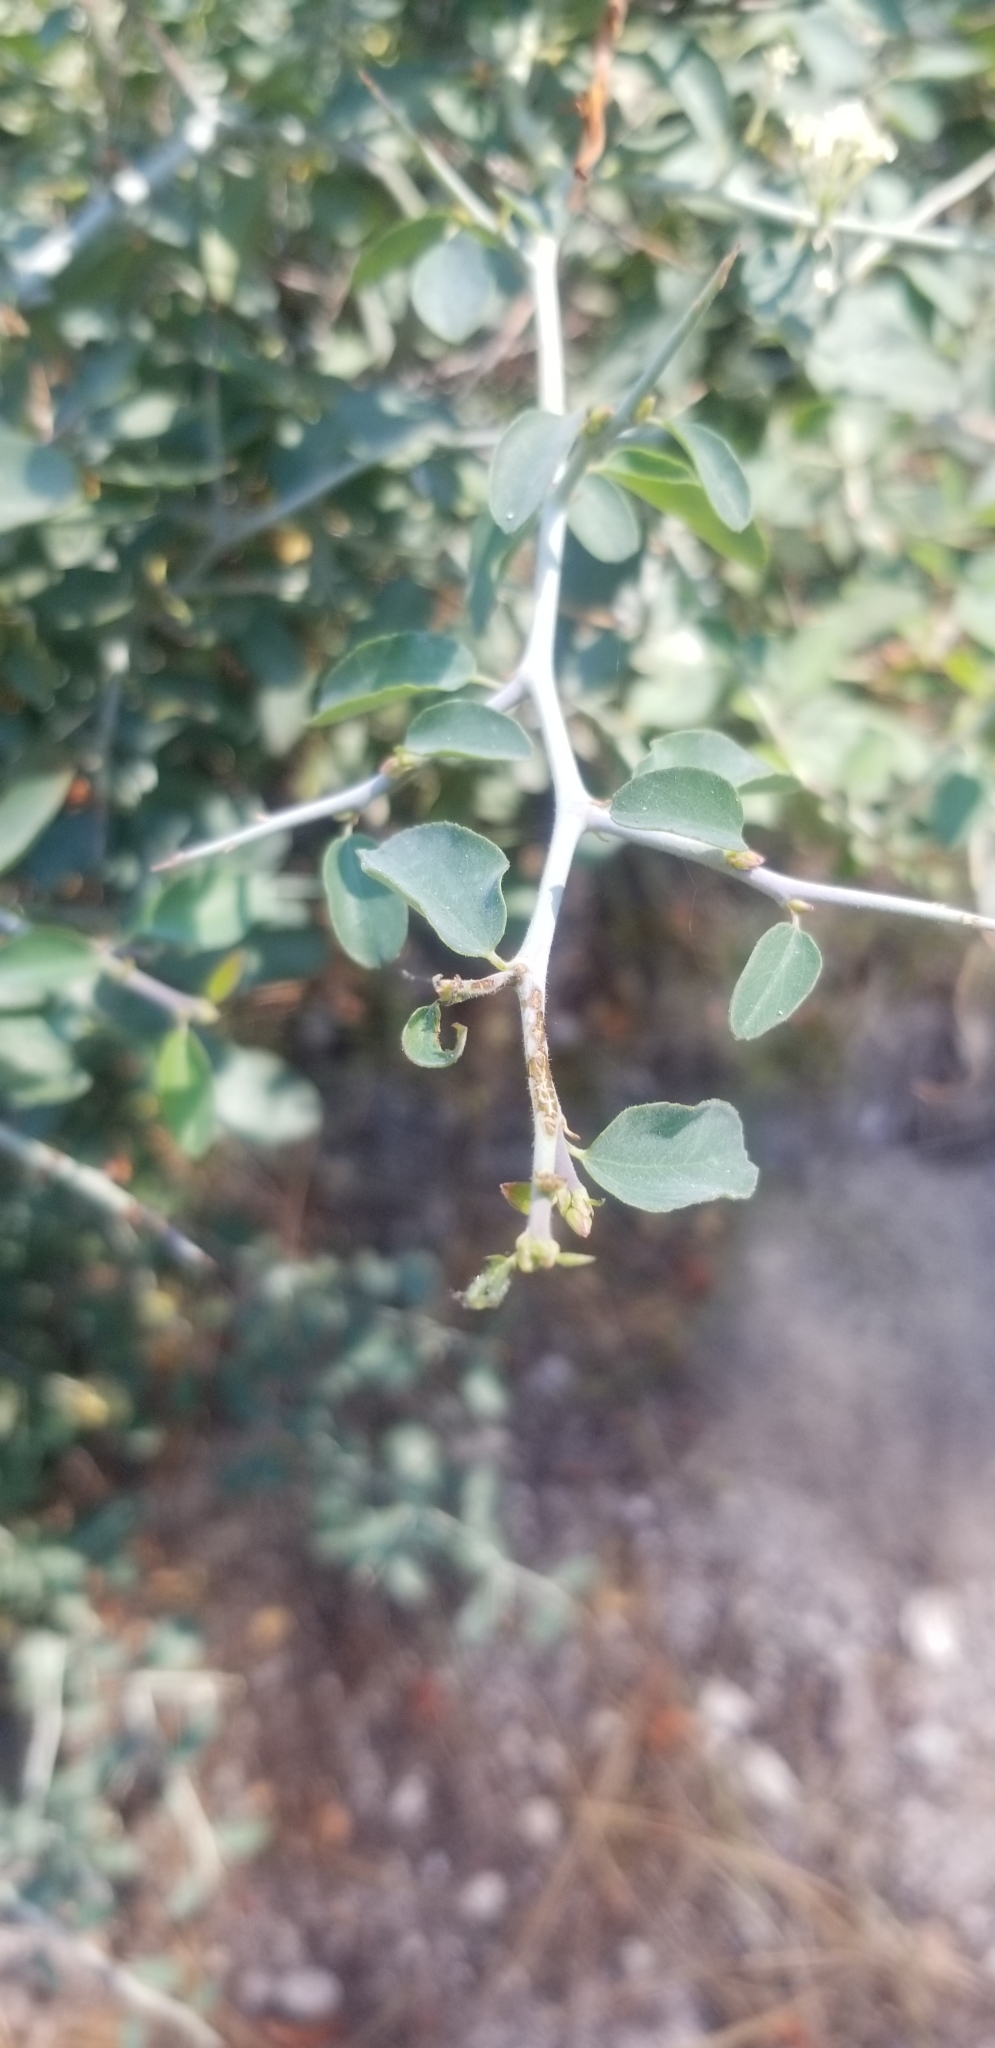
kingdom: Plantae
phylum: Tracheophyta
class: Magnoliopsida
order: Rosales
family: Rhamnaceae
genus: Ceanothus
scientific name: Ceanothus cordulatus
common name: Mountain whitethorn
